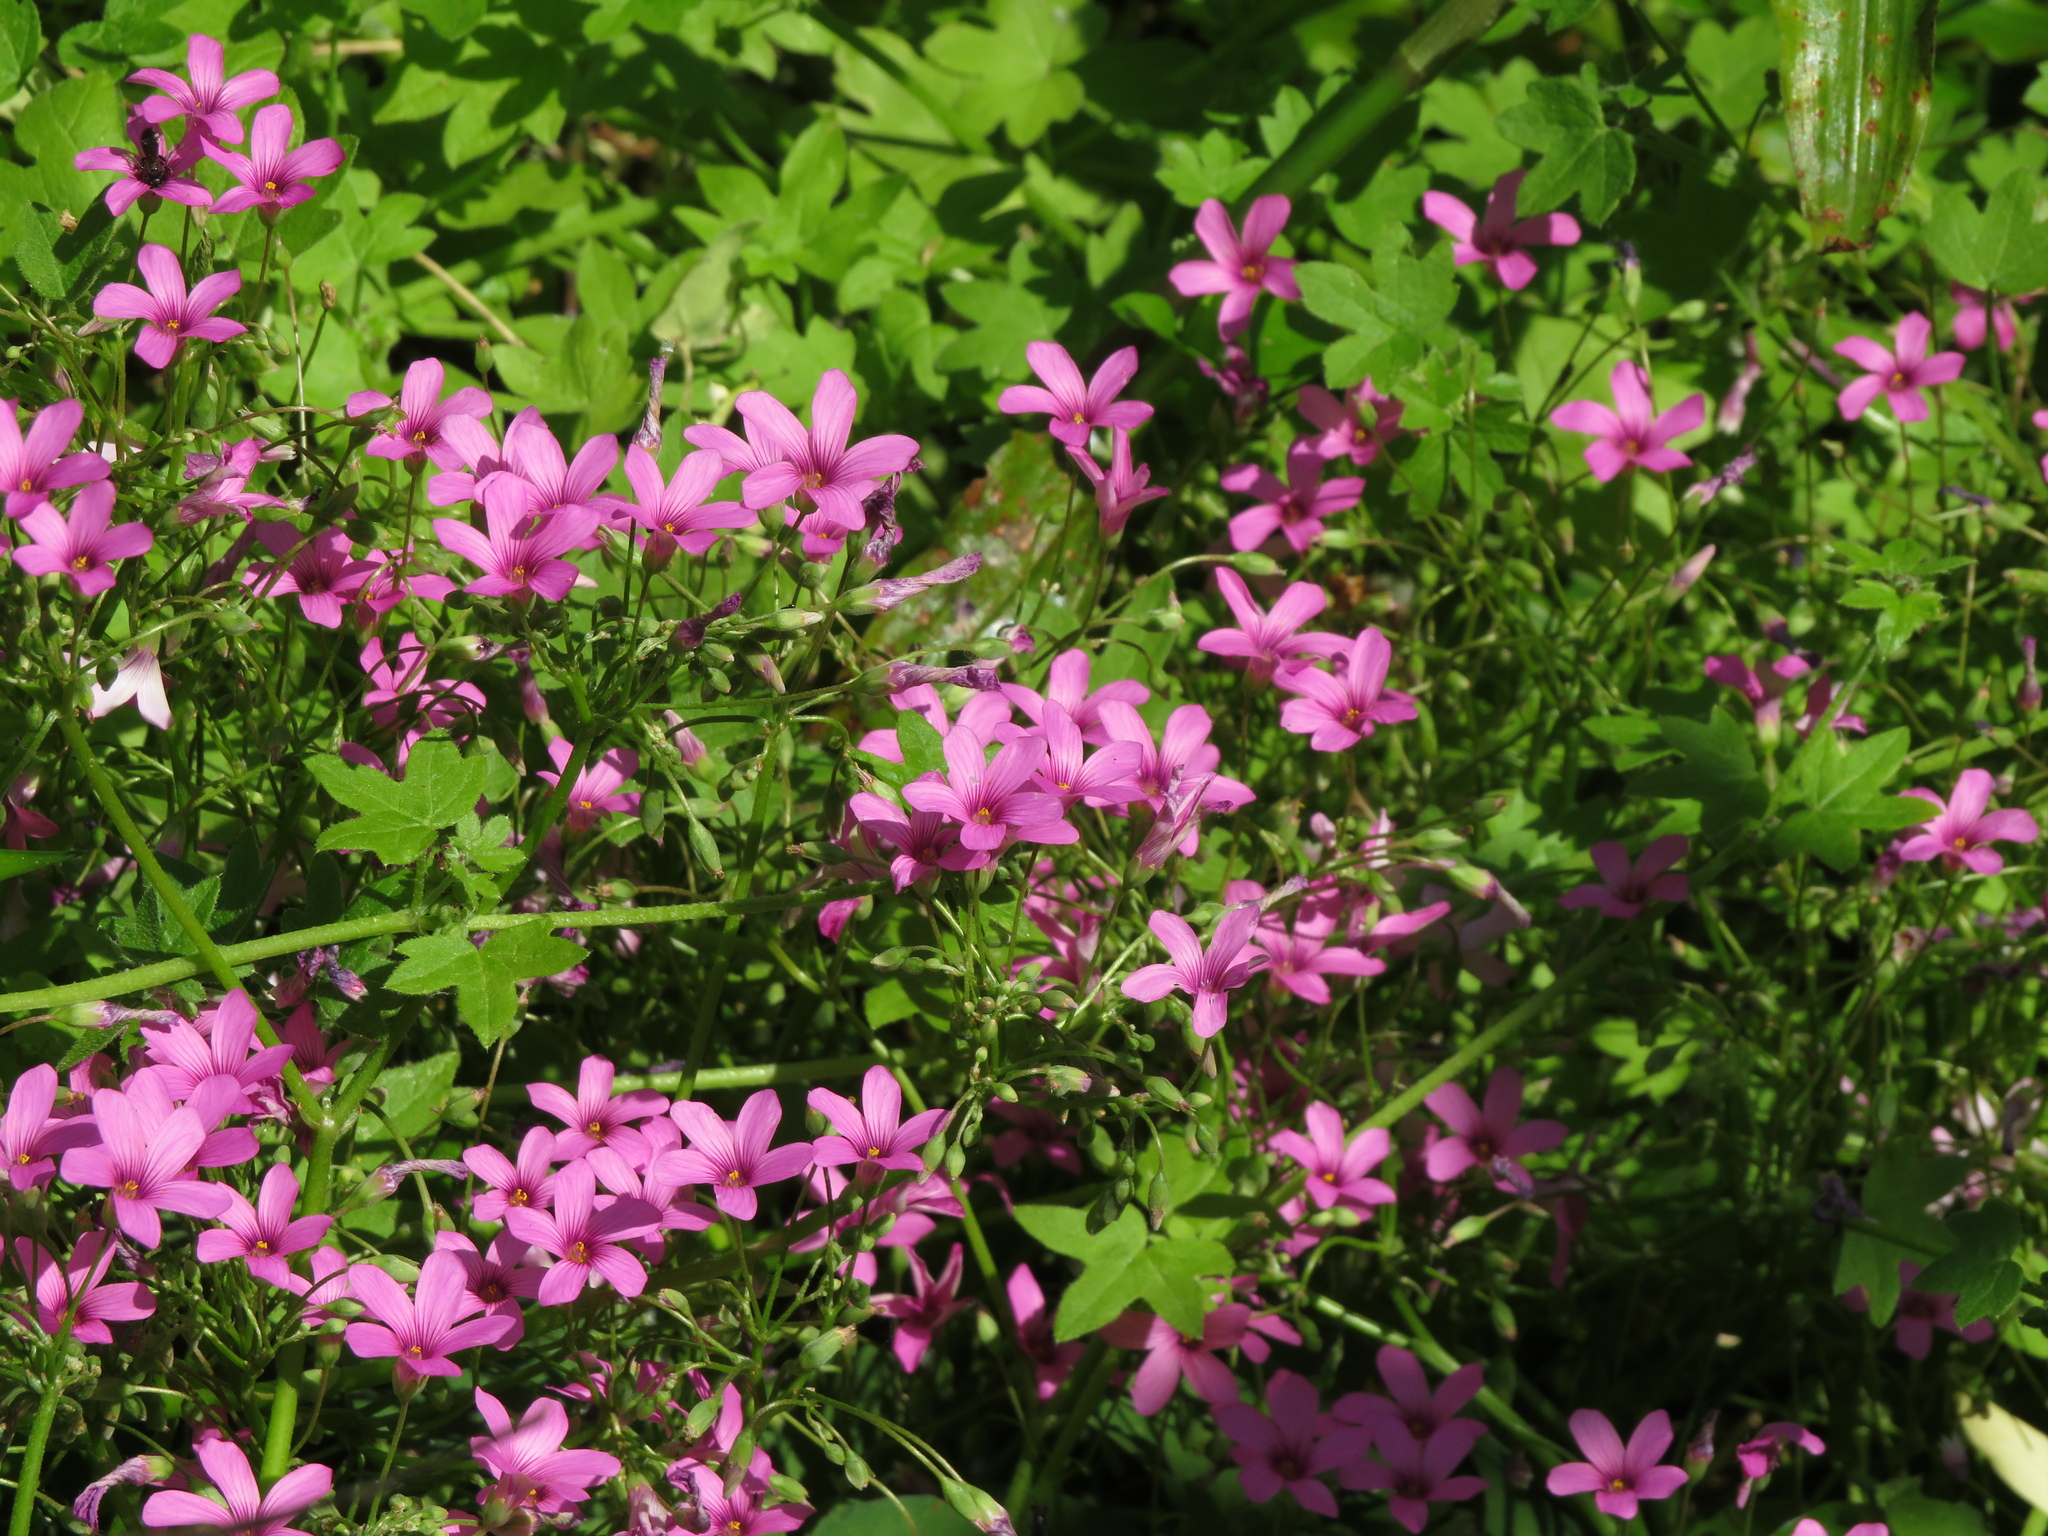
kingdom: Plantae
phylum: Tracheophyta
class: Magnoliopsida
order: Oxalidales
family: Oxalidaceae
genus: Oxalis
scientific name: Oxalis articulata
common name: Pink-sorrel
